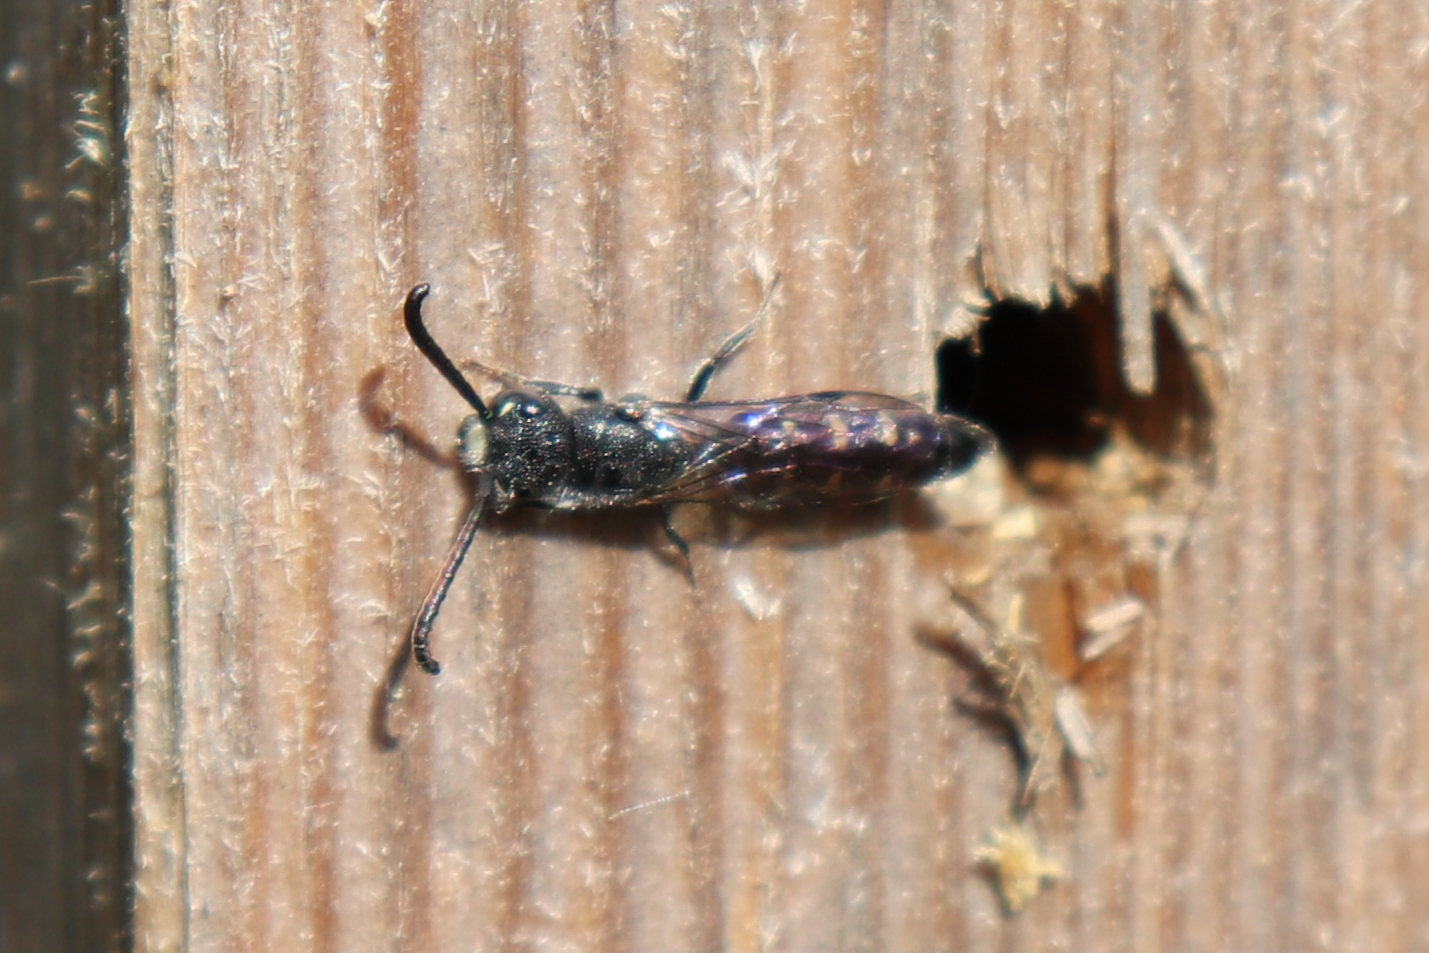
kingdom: Animalia
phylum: Arthropoda
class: Insecta
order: Hymenoptera
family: Sapygidae
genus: Sapyga
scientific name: Sapyga quinquepunctata
